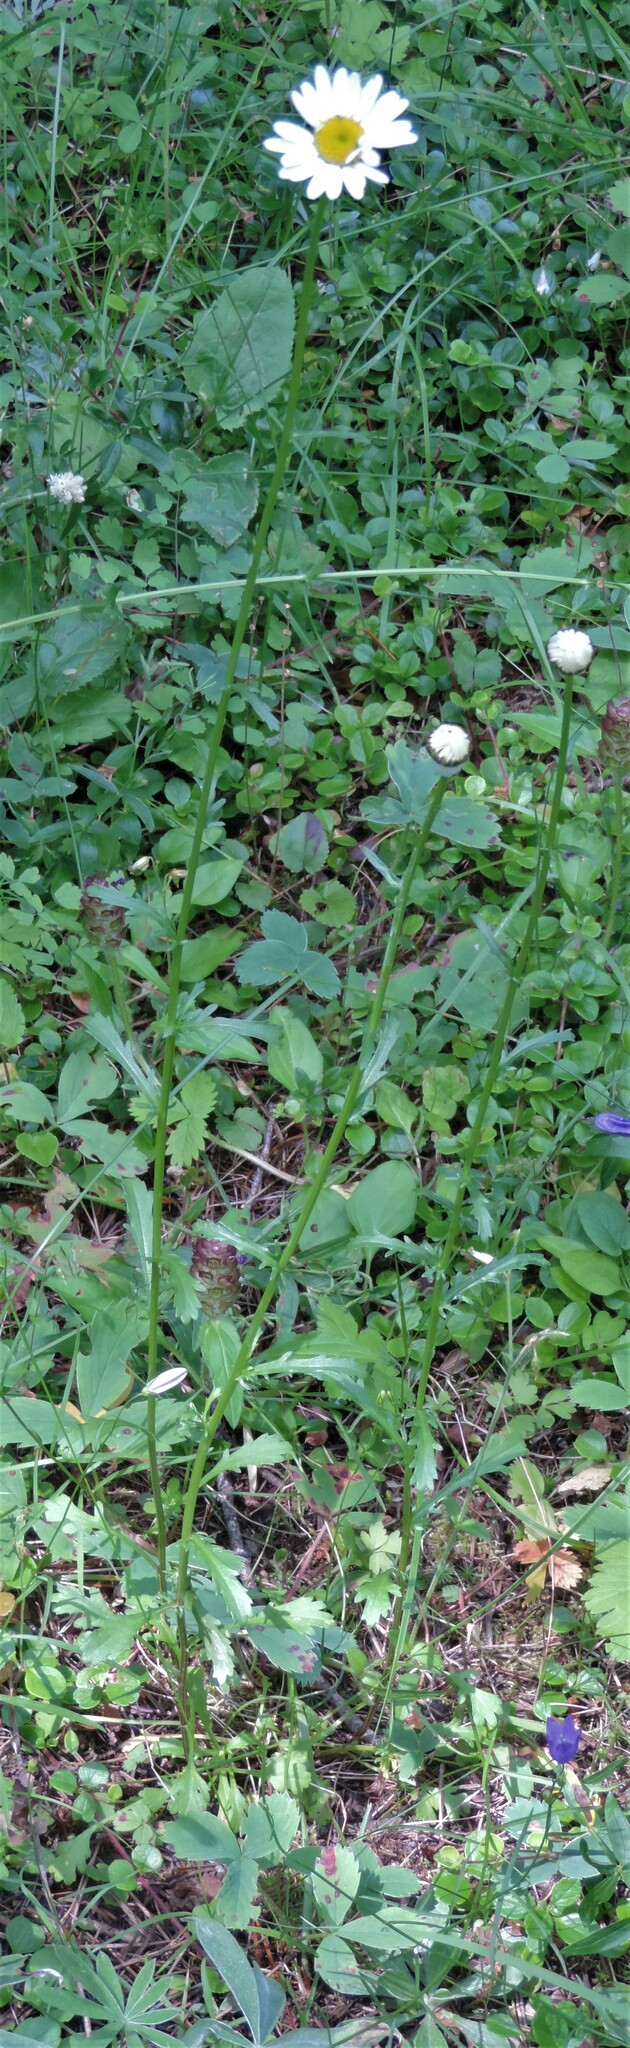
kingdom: Plantae
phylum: Tracheophyta
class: Magnoliopsida
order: Asterales
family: Asteraceae
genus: Leucanthemum
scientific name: Leucanthemum vulgare
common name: Oxeye daisy
